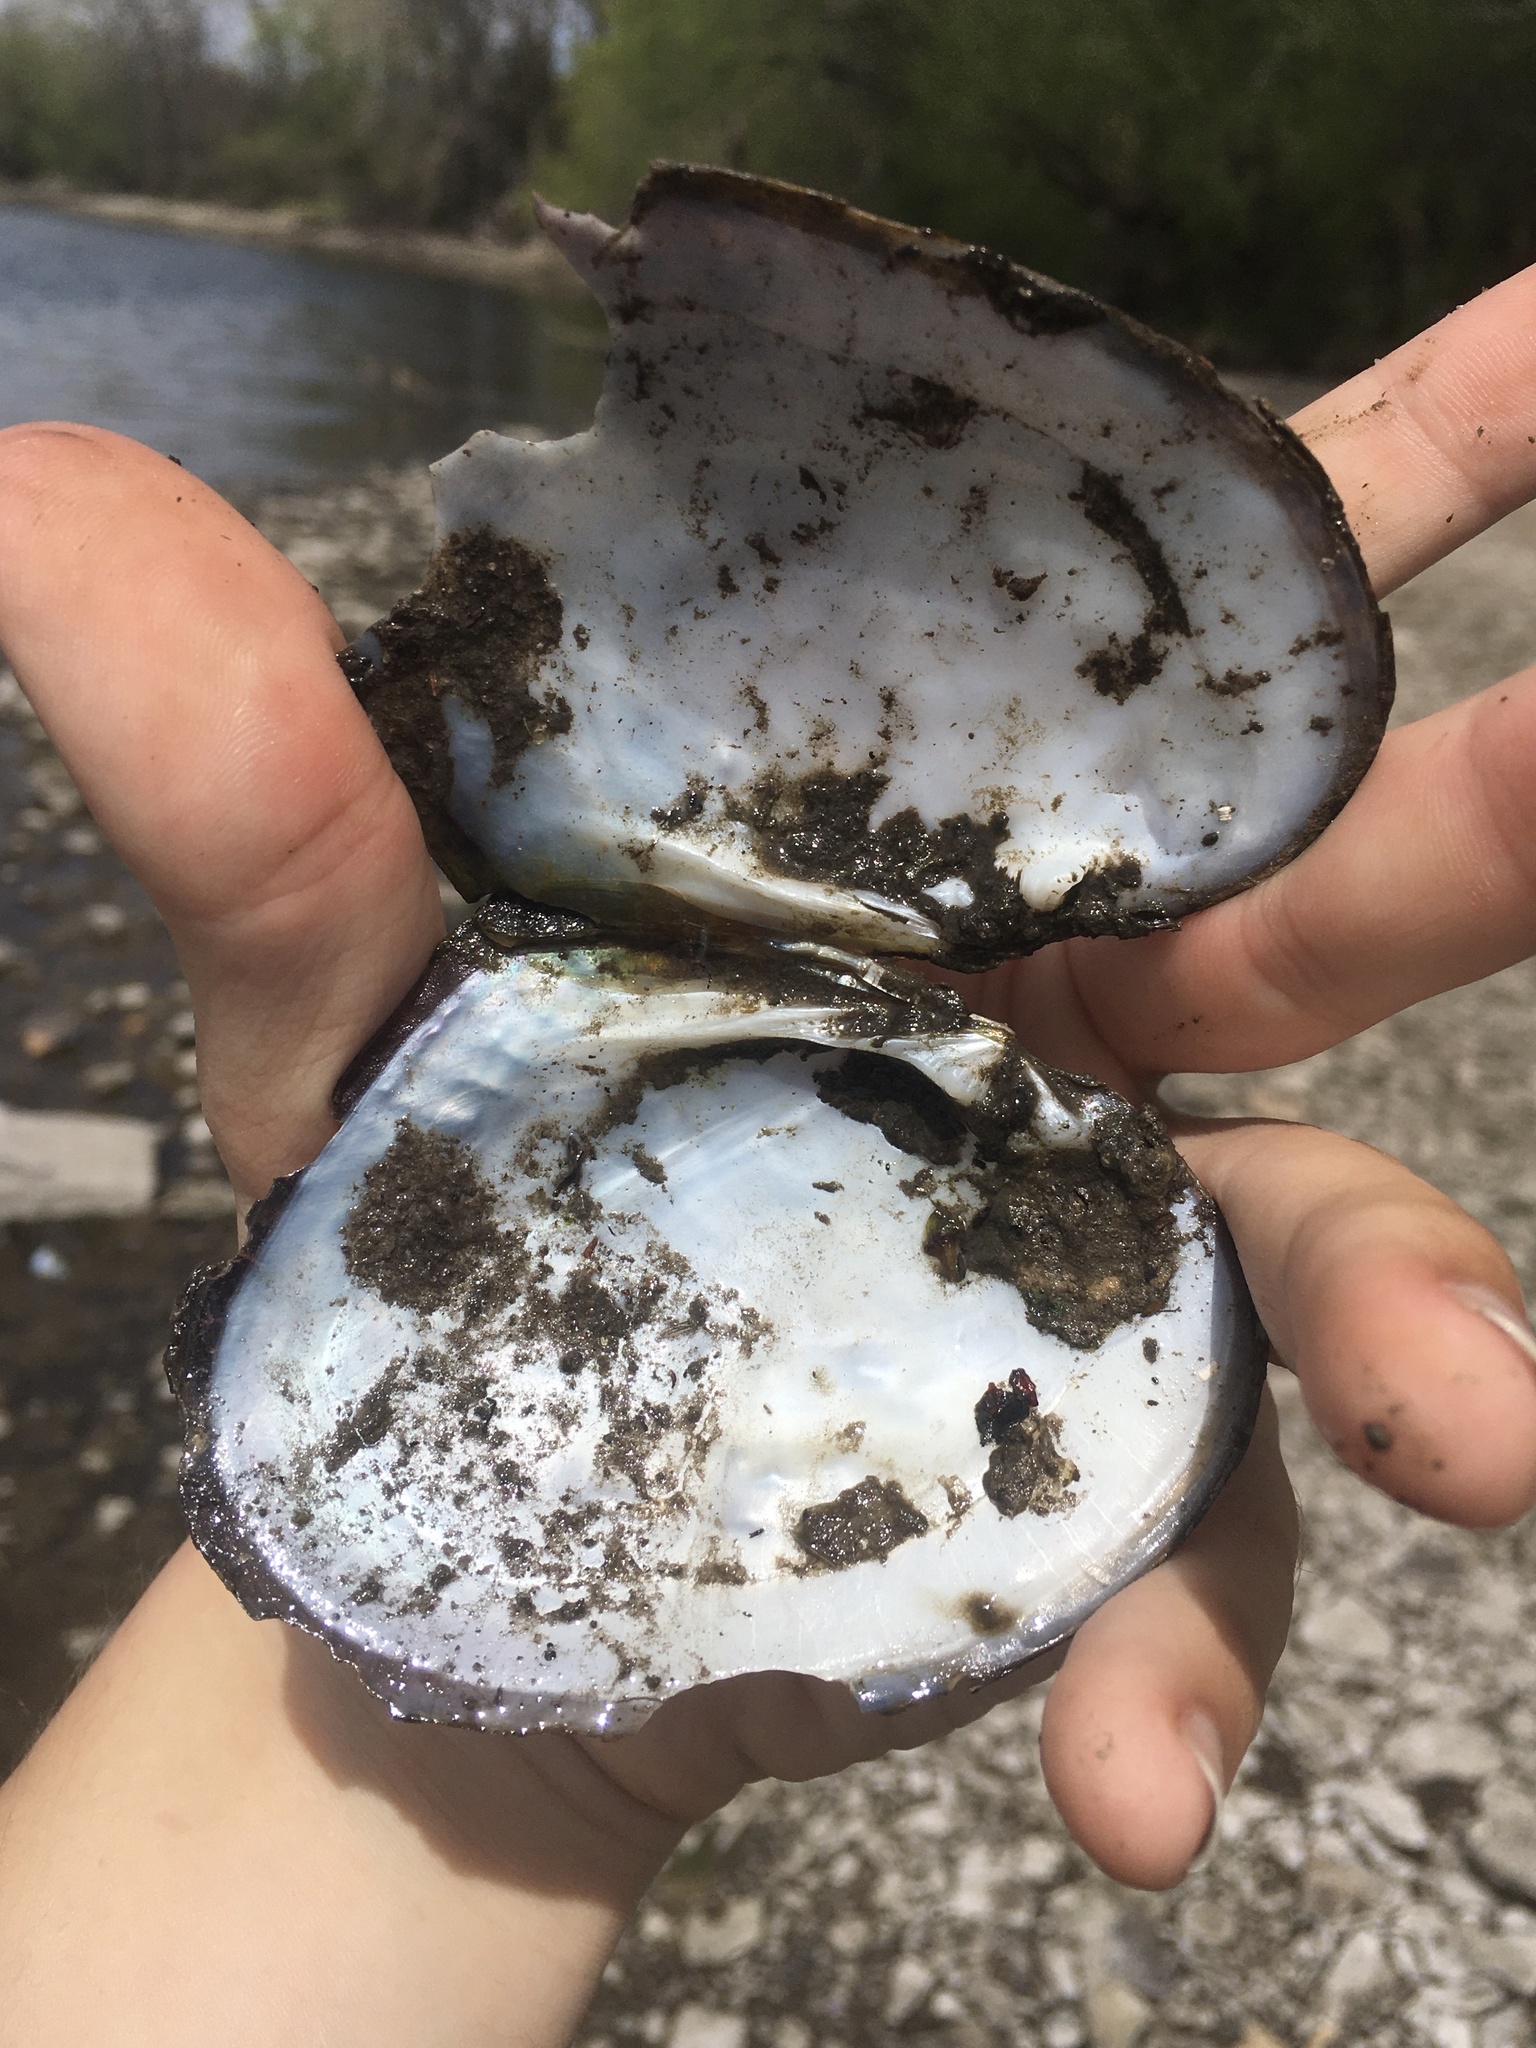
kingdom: Animalia
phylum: Mollusca
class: Bivalvia
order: Unionida
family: Unionidae
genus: Lasmigona
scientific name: Lasmigona complanata
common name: White heelsplitter
